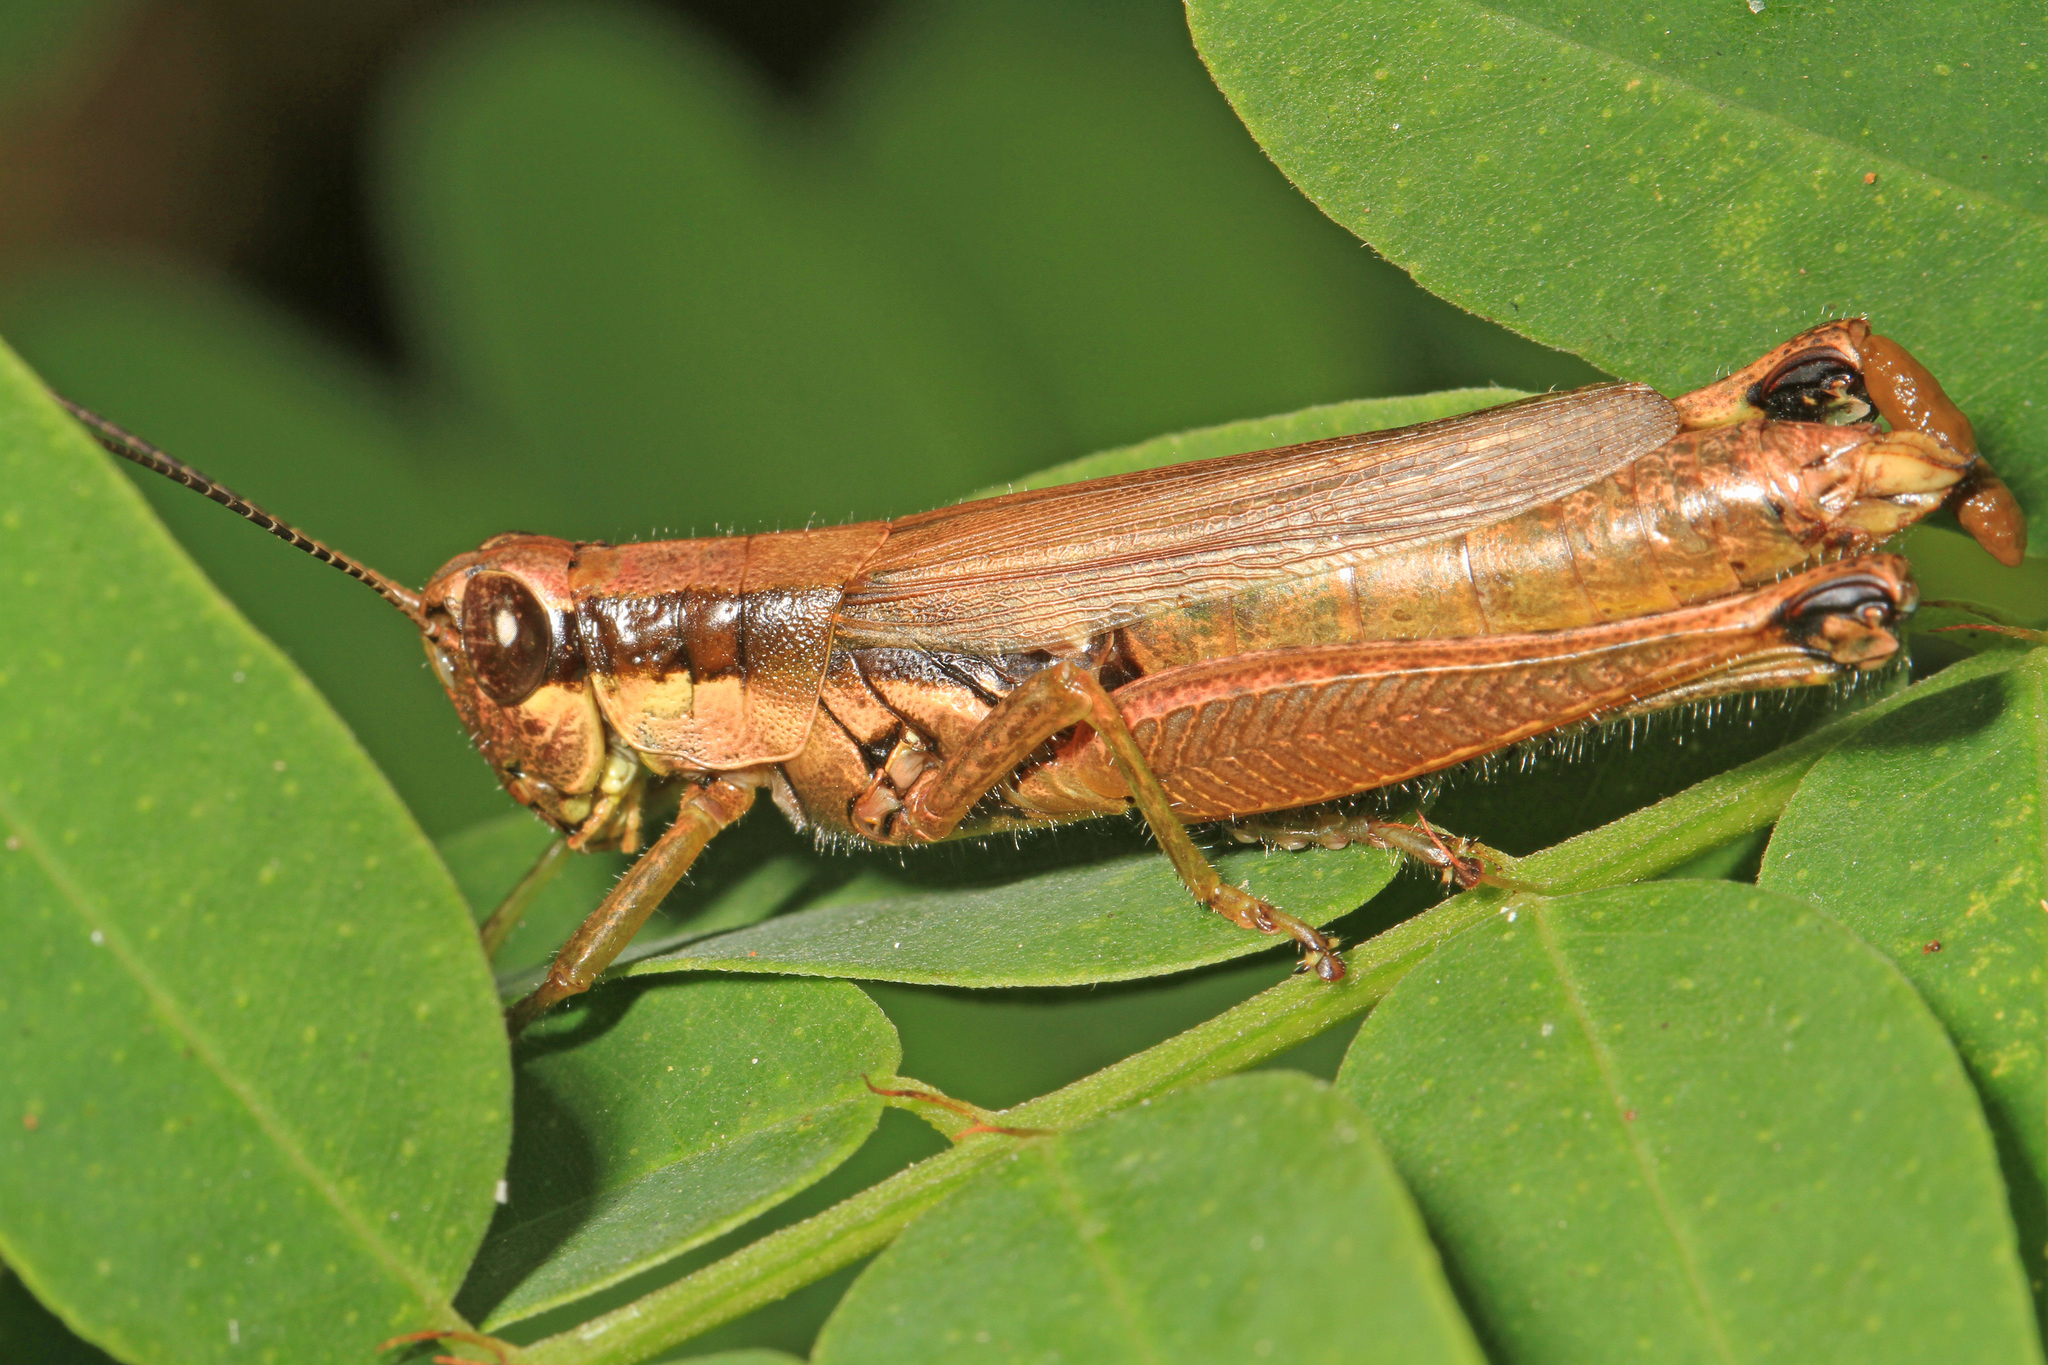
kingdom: Animalia
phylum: Arthropoda
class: Insecta
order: Orthoptera
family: Acrididae
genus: Paroxya
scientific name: Paroxya clavuligera
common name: Olive-green swamp grasshopper
